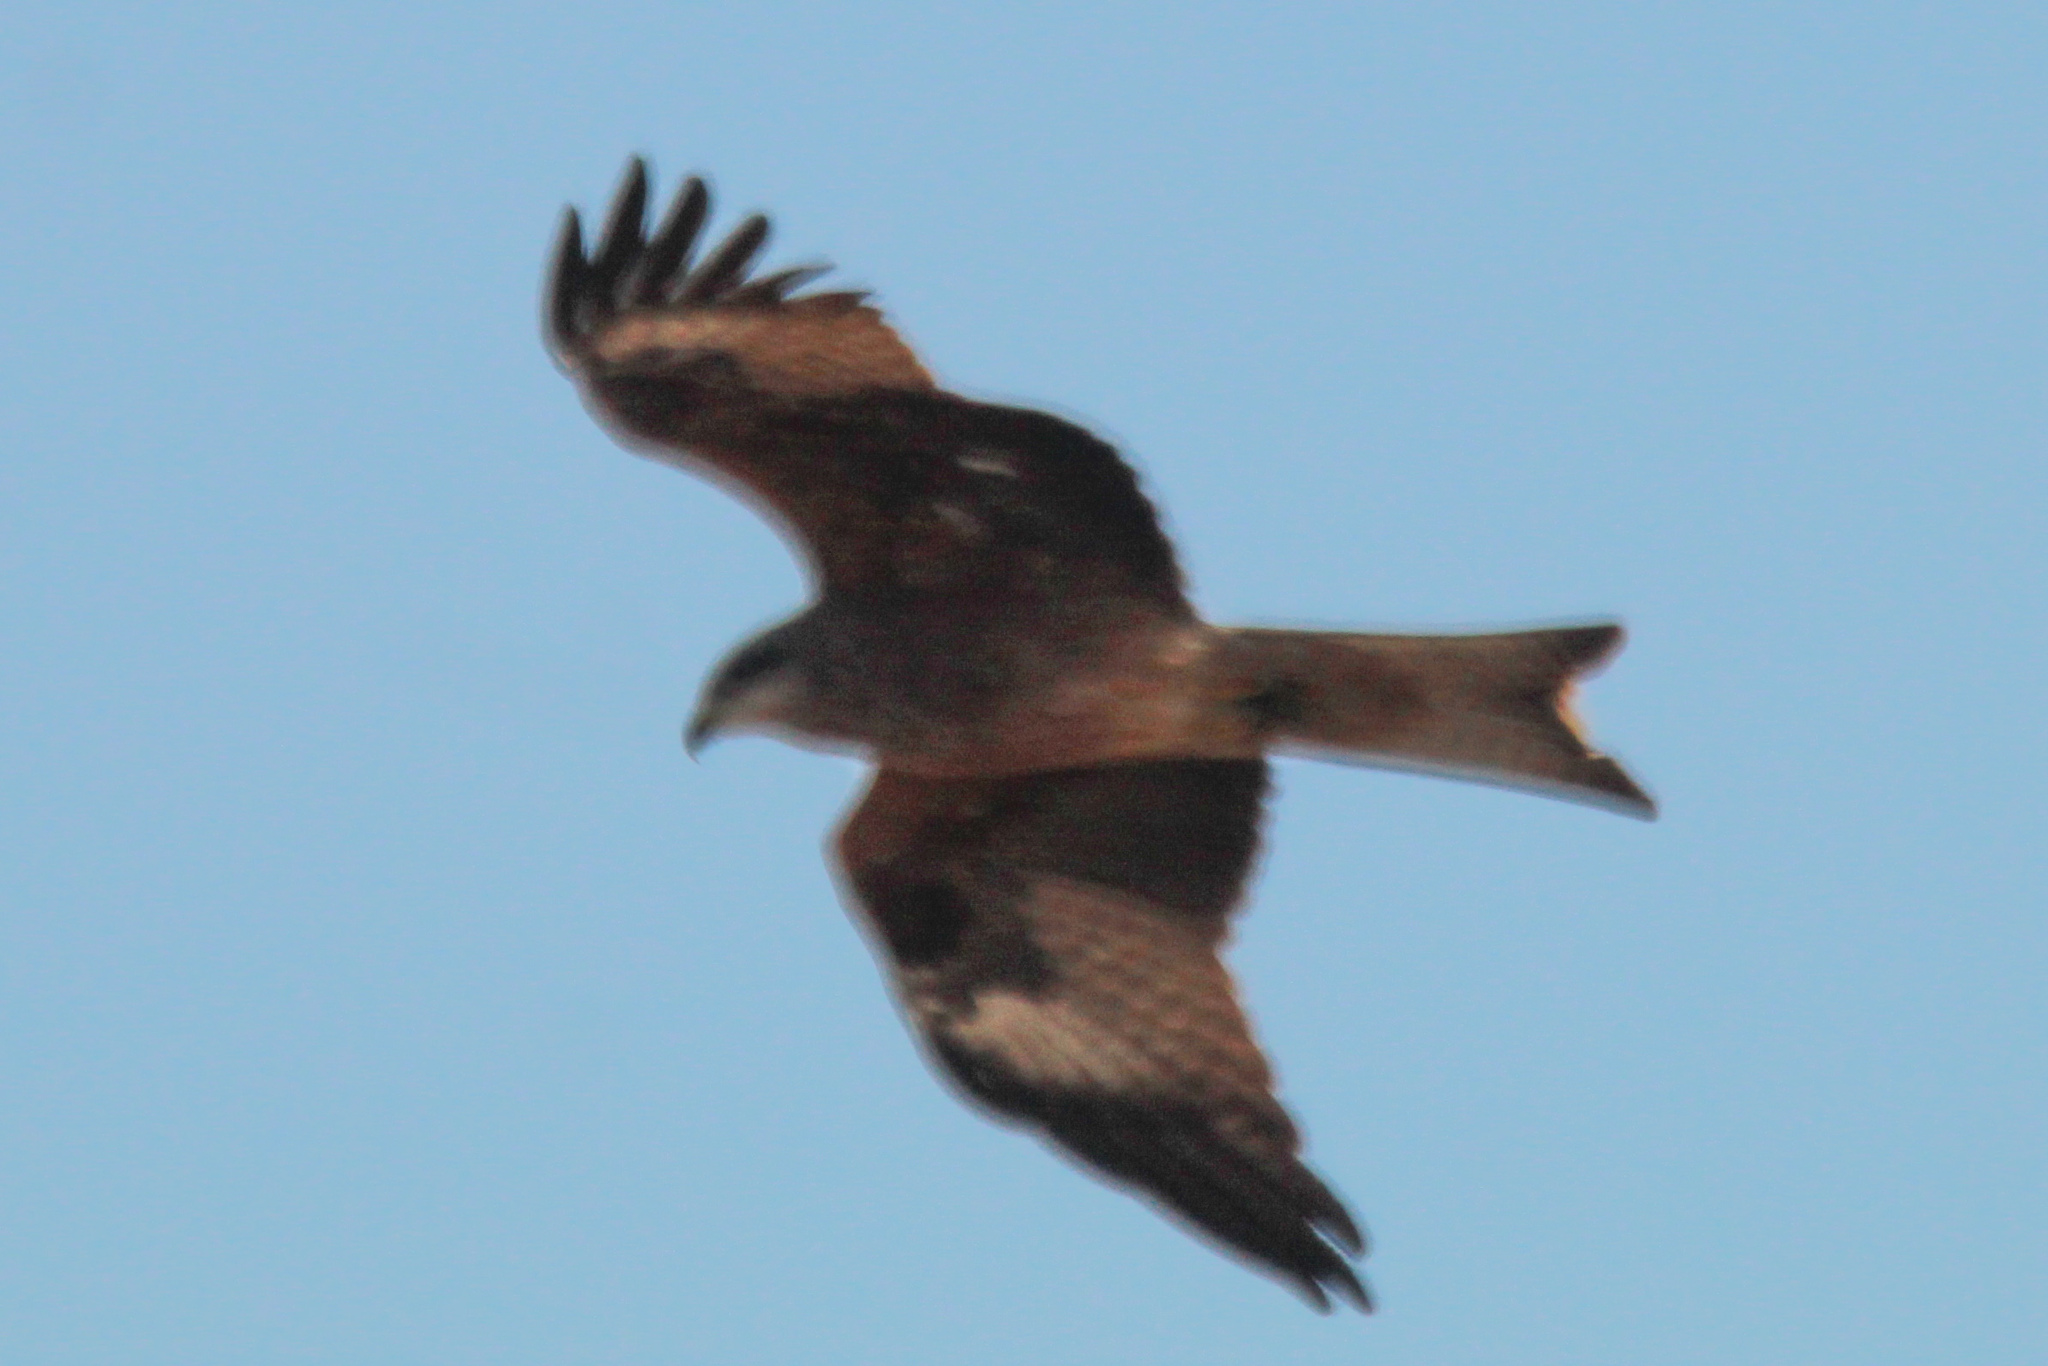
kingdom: Animalia
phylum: Chordata
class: Aves
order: Accipitriformes
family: Accipitridae
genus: Milvus
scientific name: Milvus migrans
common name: Black kite
